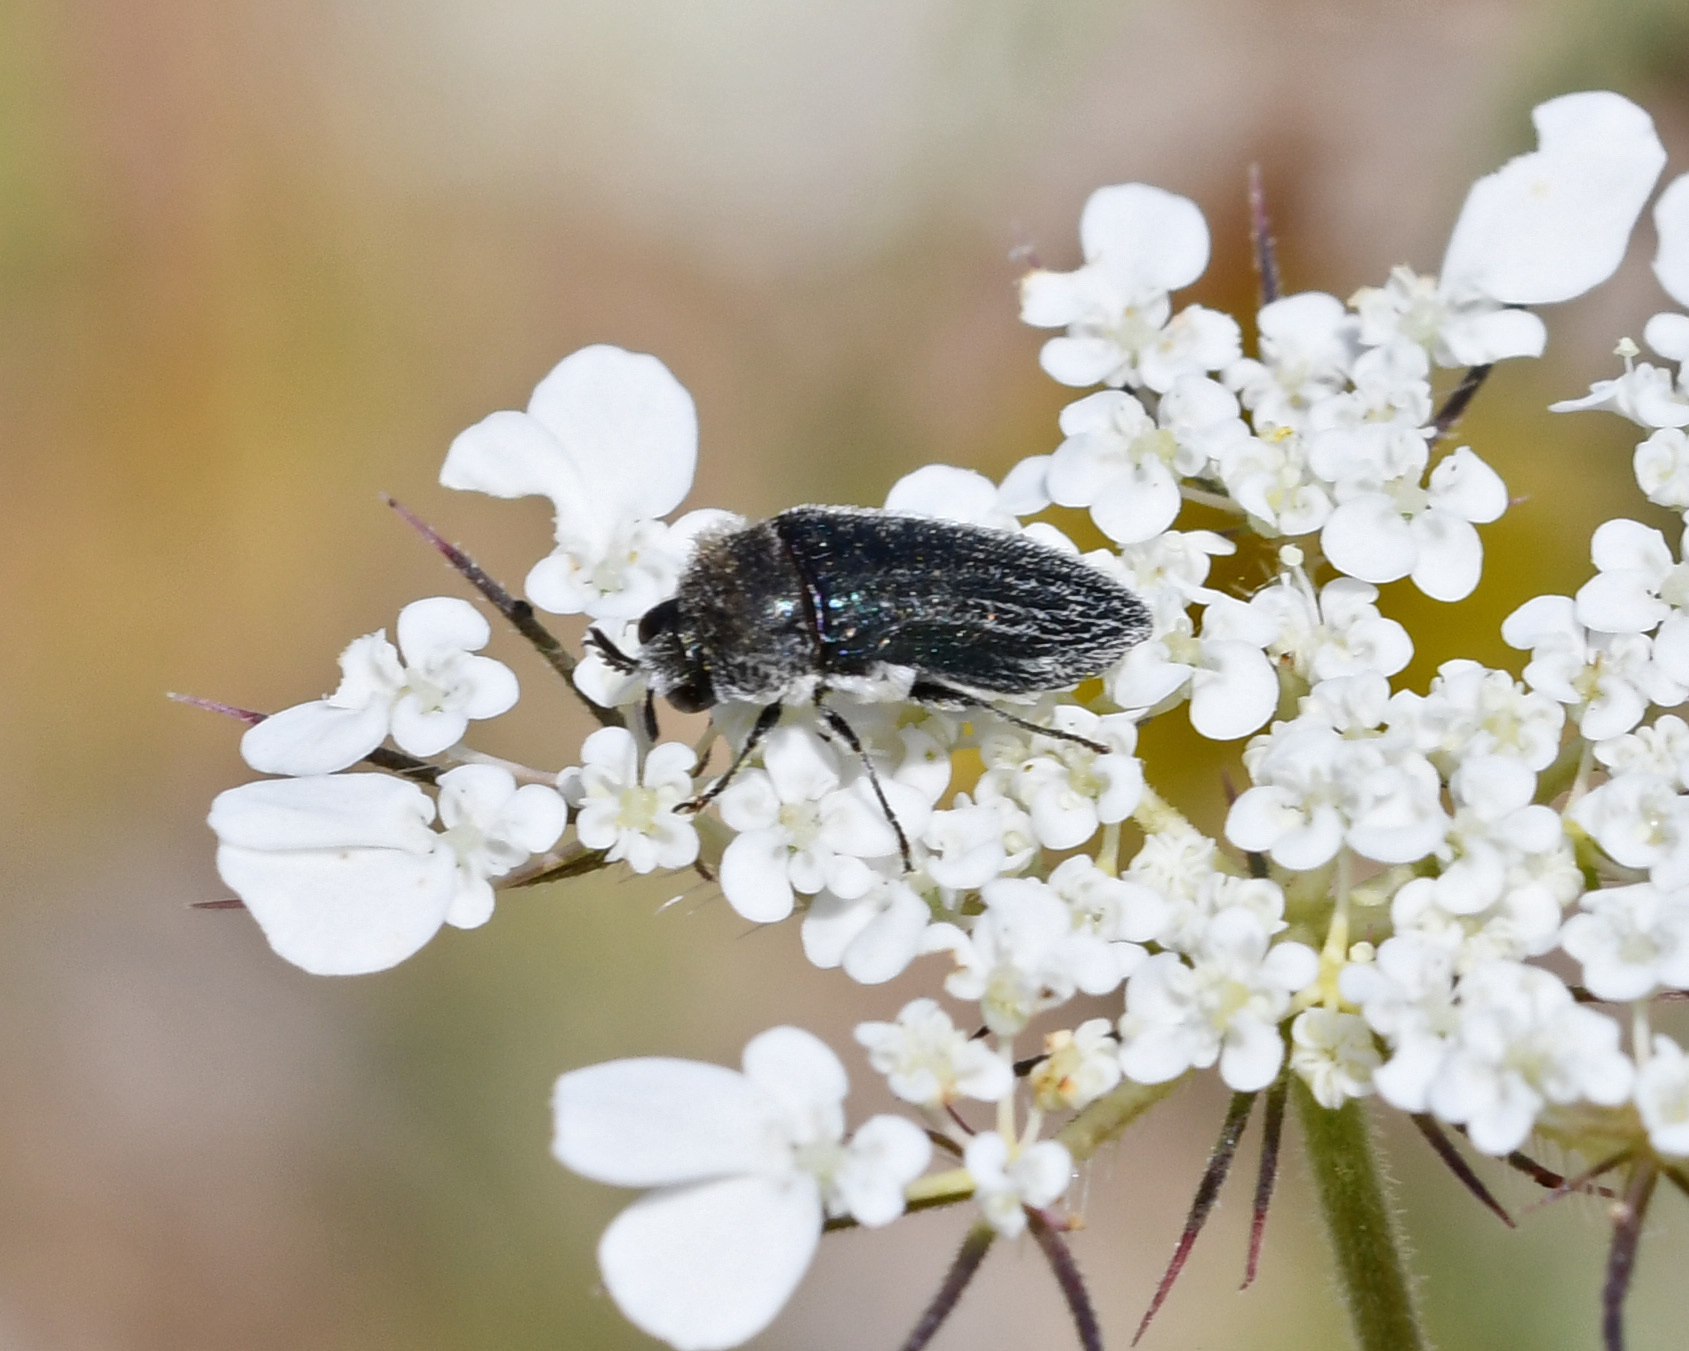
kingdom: Animalia
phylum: Arthropoda
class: Insecta
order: Coleoptera
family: Buprestidae
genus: Acmaeoderella
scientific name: Acmaeoderella villosula
